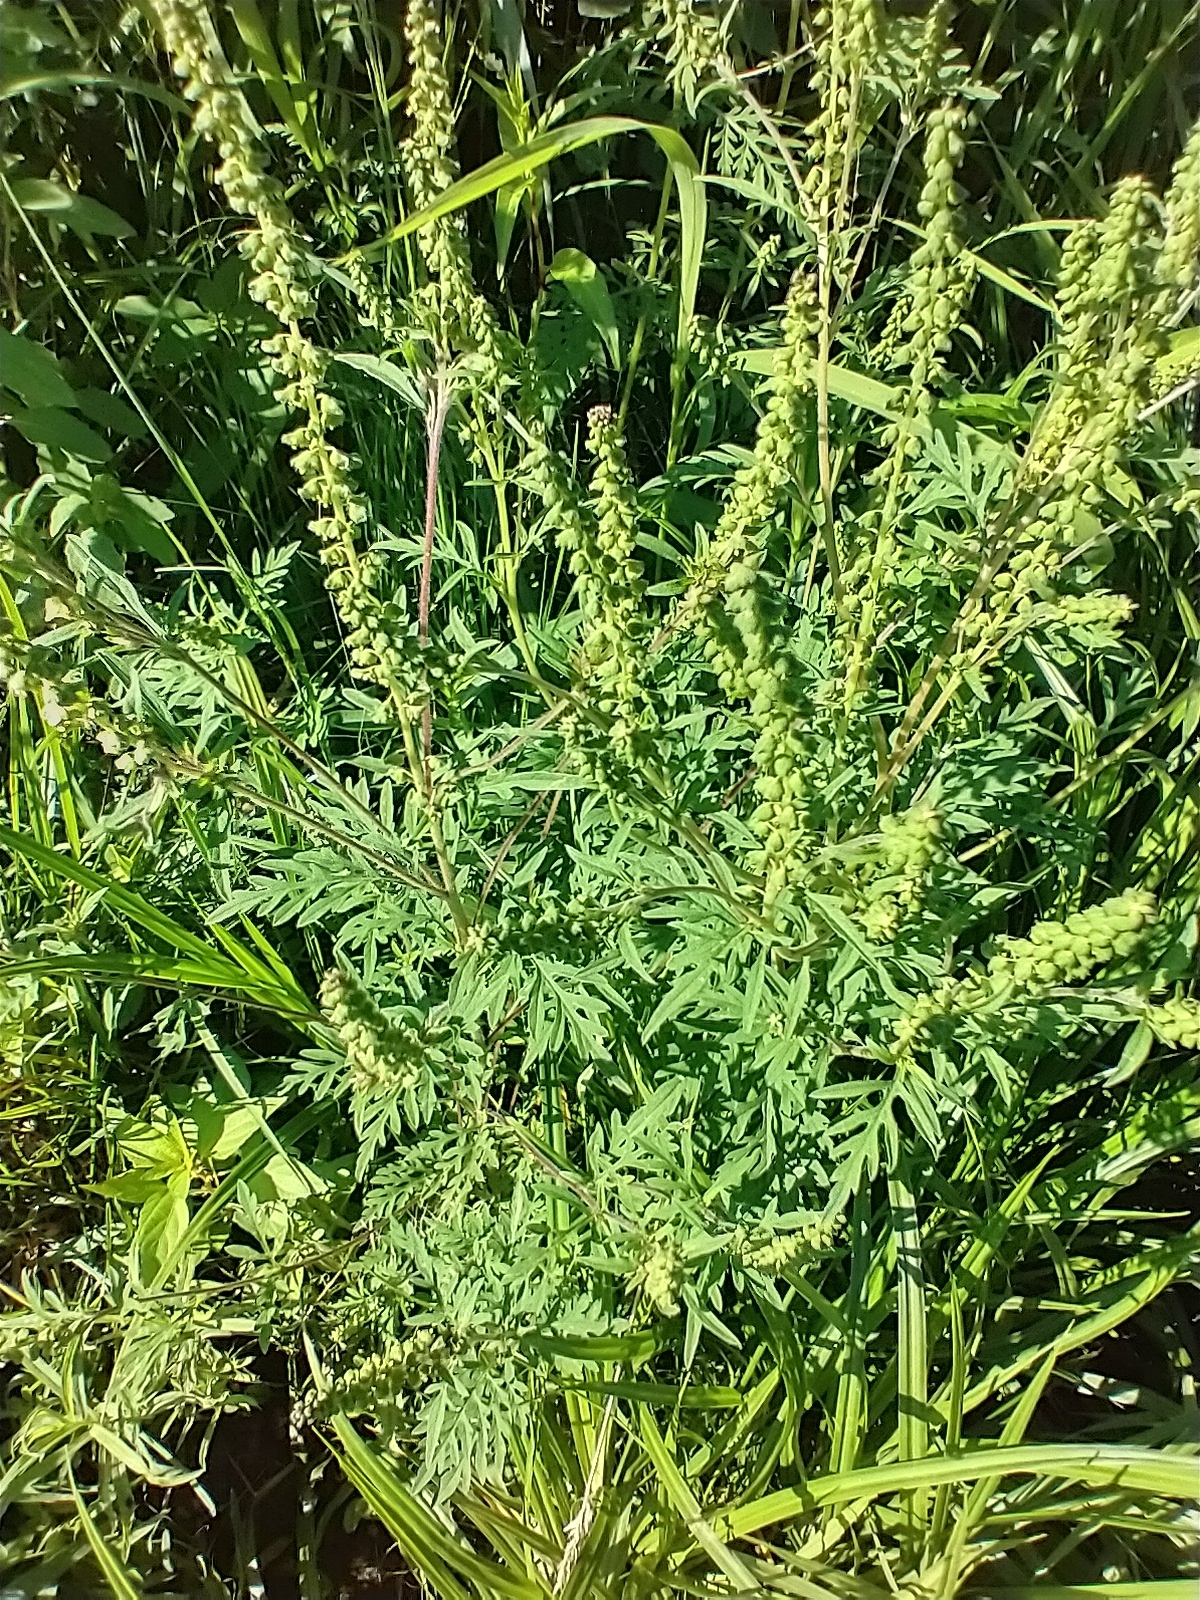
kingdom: Plantae
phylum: Tracheophyta
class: Magnoliopsida
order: Asterales
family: Asteraceae
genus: Ambrosia
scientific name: Ambrosia artemisiifolia
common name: Annual ragweed
